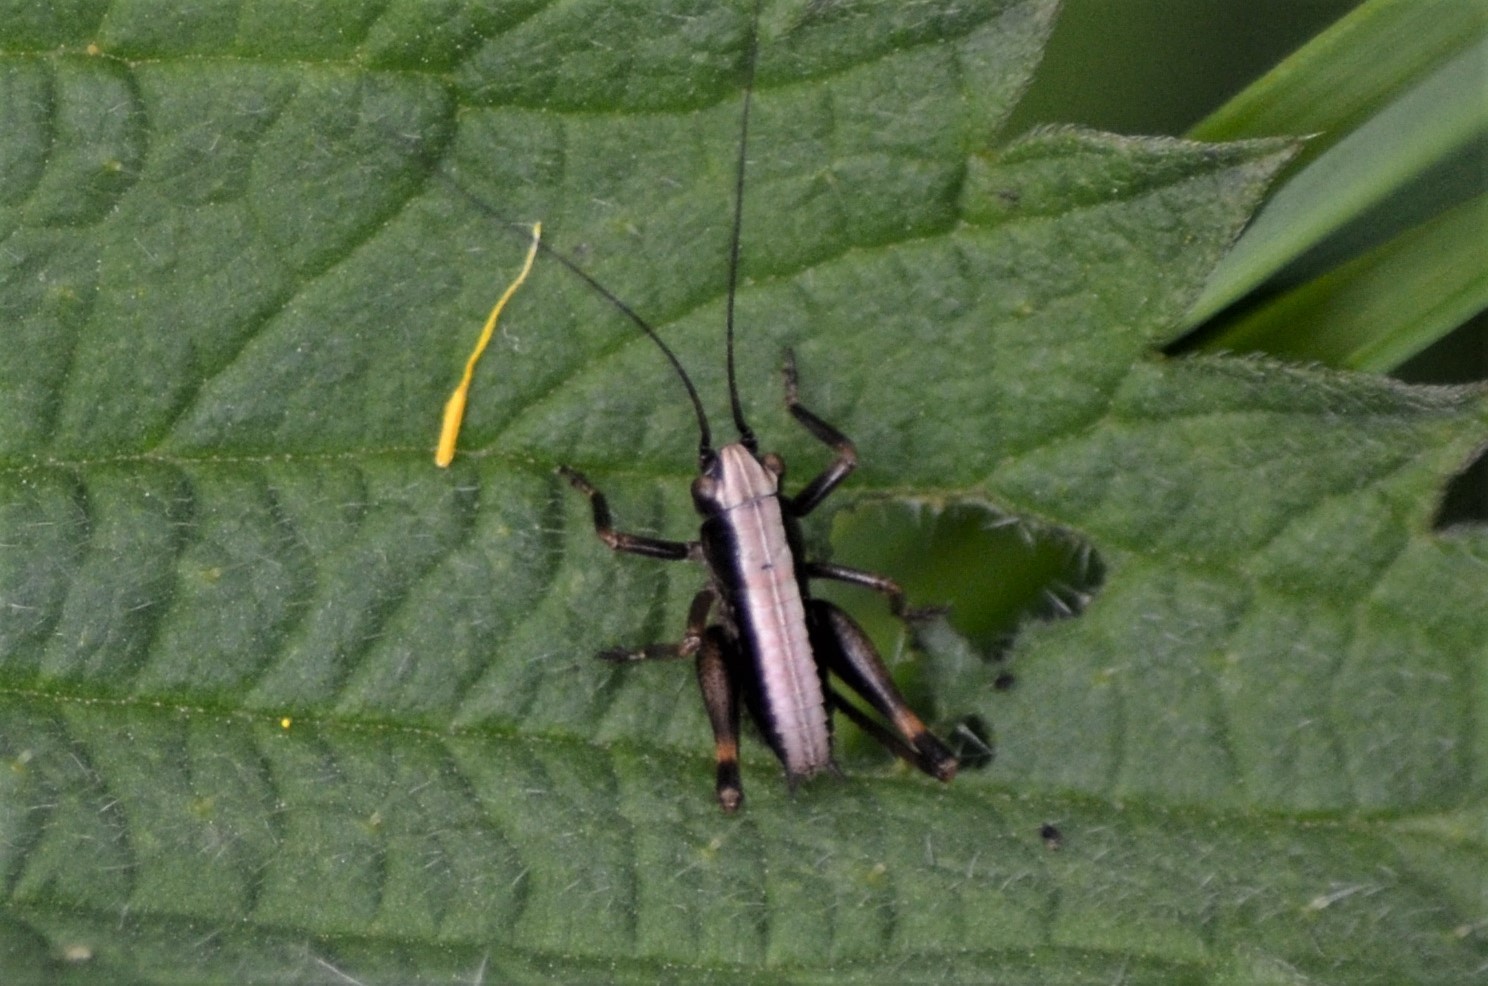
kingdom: Animalia
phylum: Arthropoda
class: Insecta
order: Orthoptera
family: Tettigoniidae
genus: Pholidoptera
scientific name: Pholidoptera griseoaptera
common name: Dark bush-cricket
